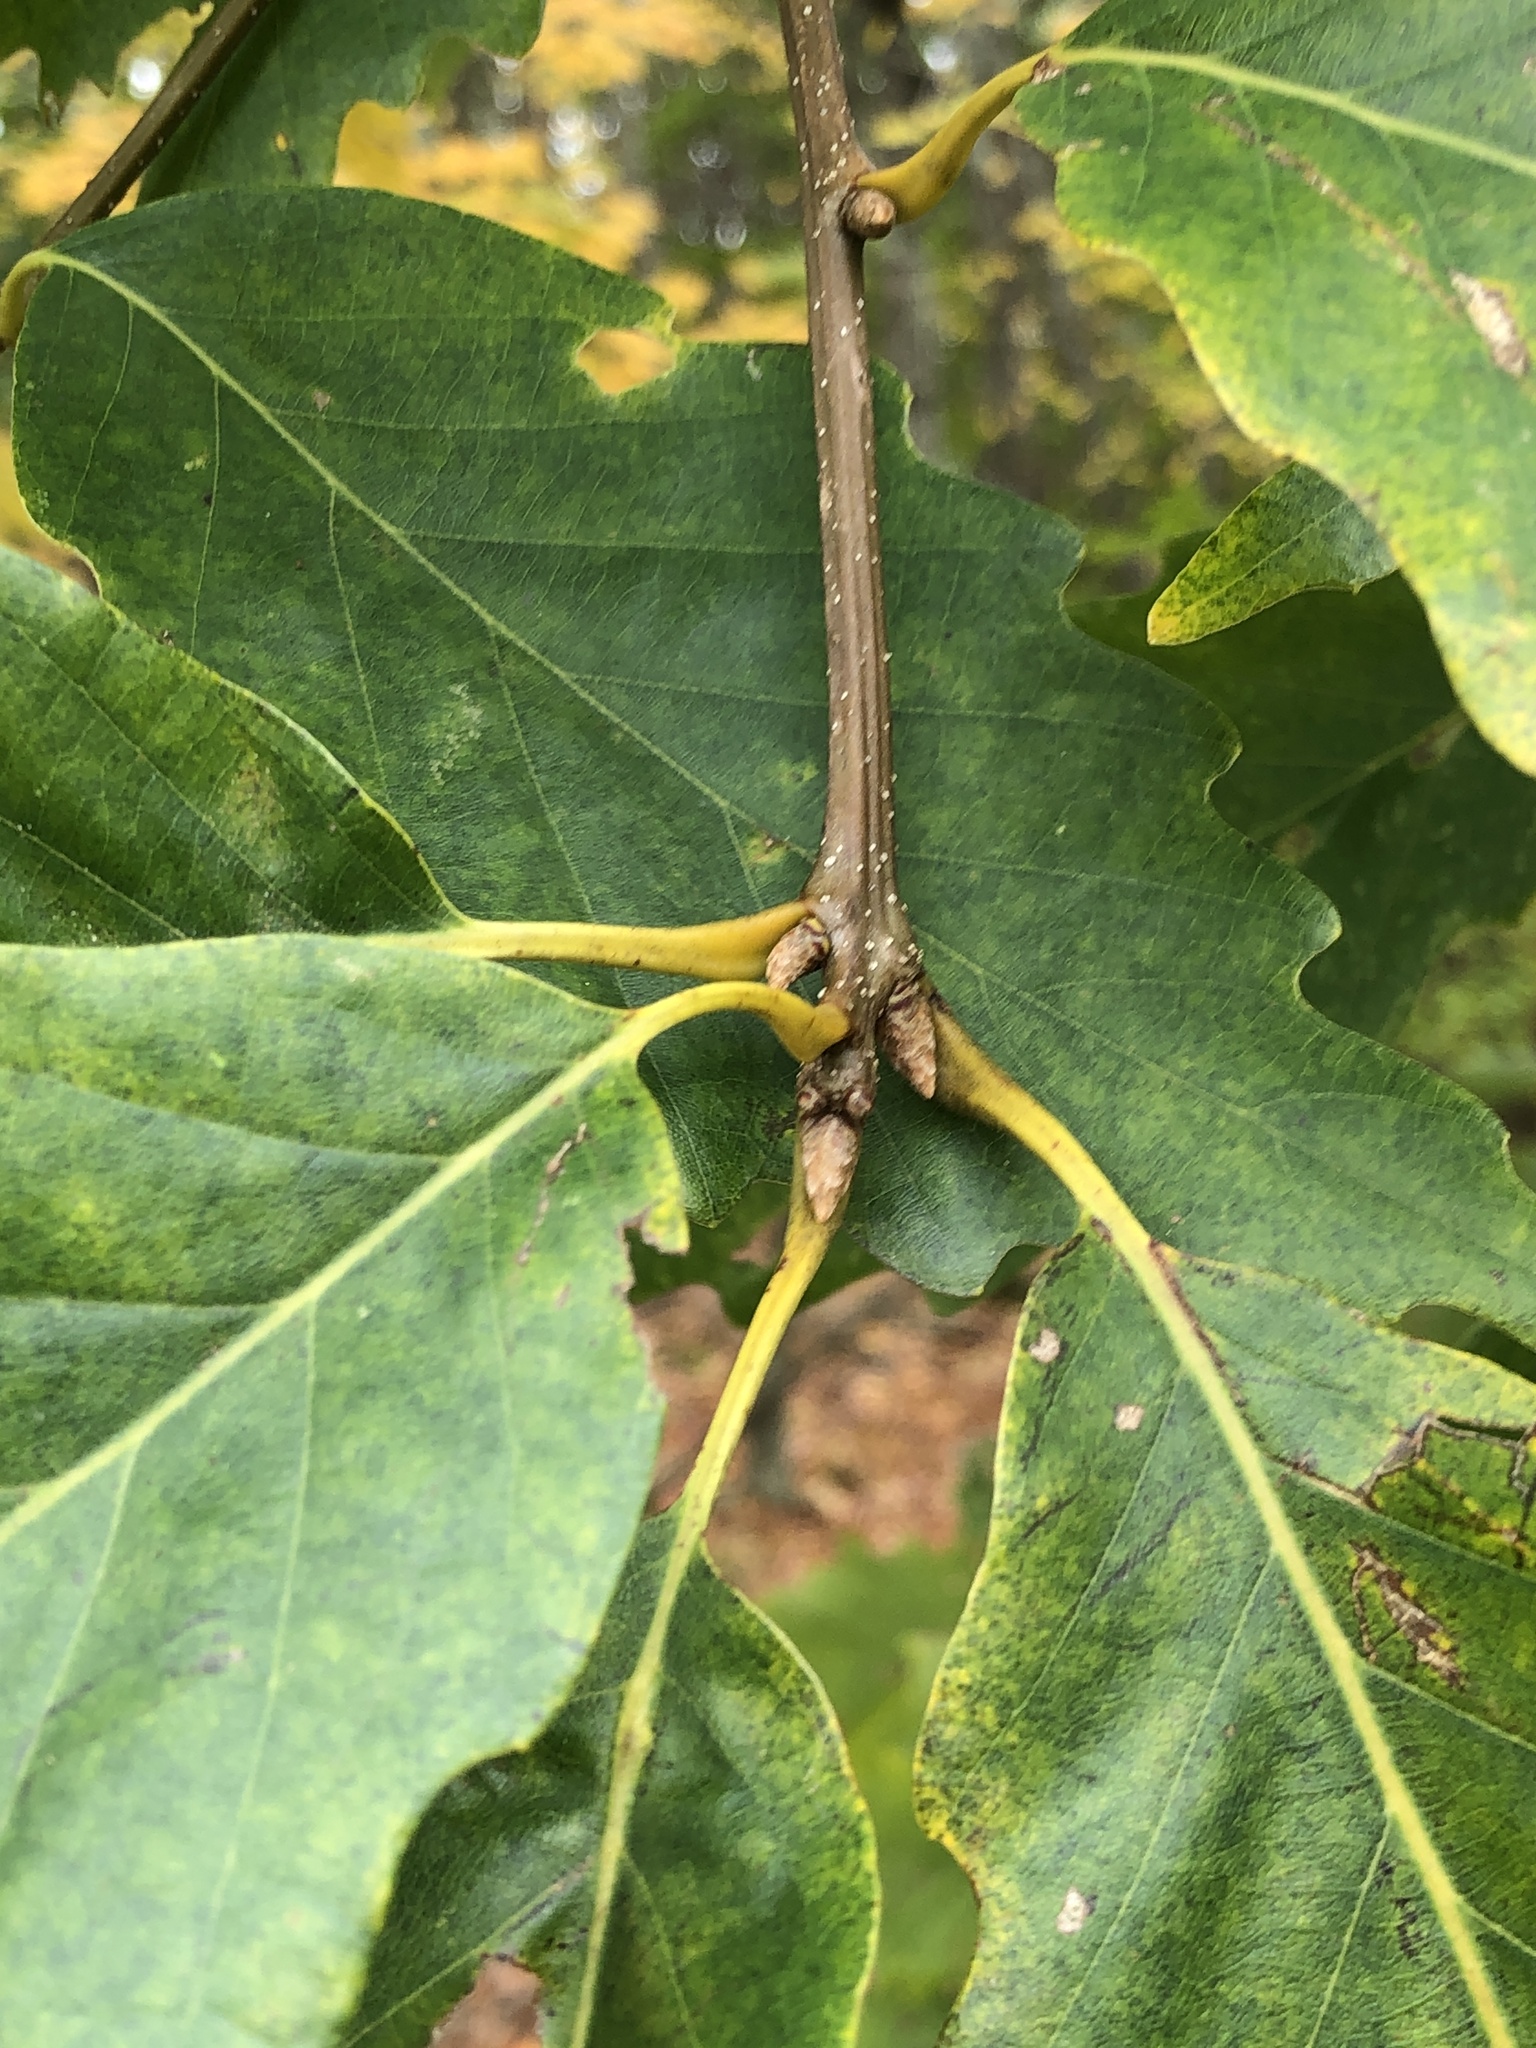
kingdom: Plantae
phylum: Tracheophyta
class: Magnoliopsida
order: Fagales
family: Fagaceae
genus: Quercus
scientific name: Quercus montana
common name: Chestnut oak
